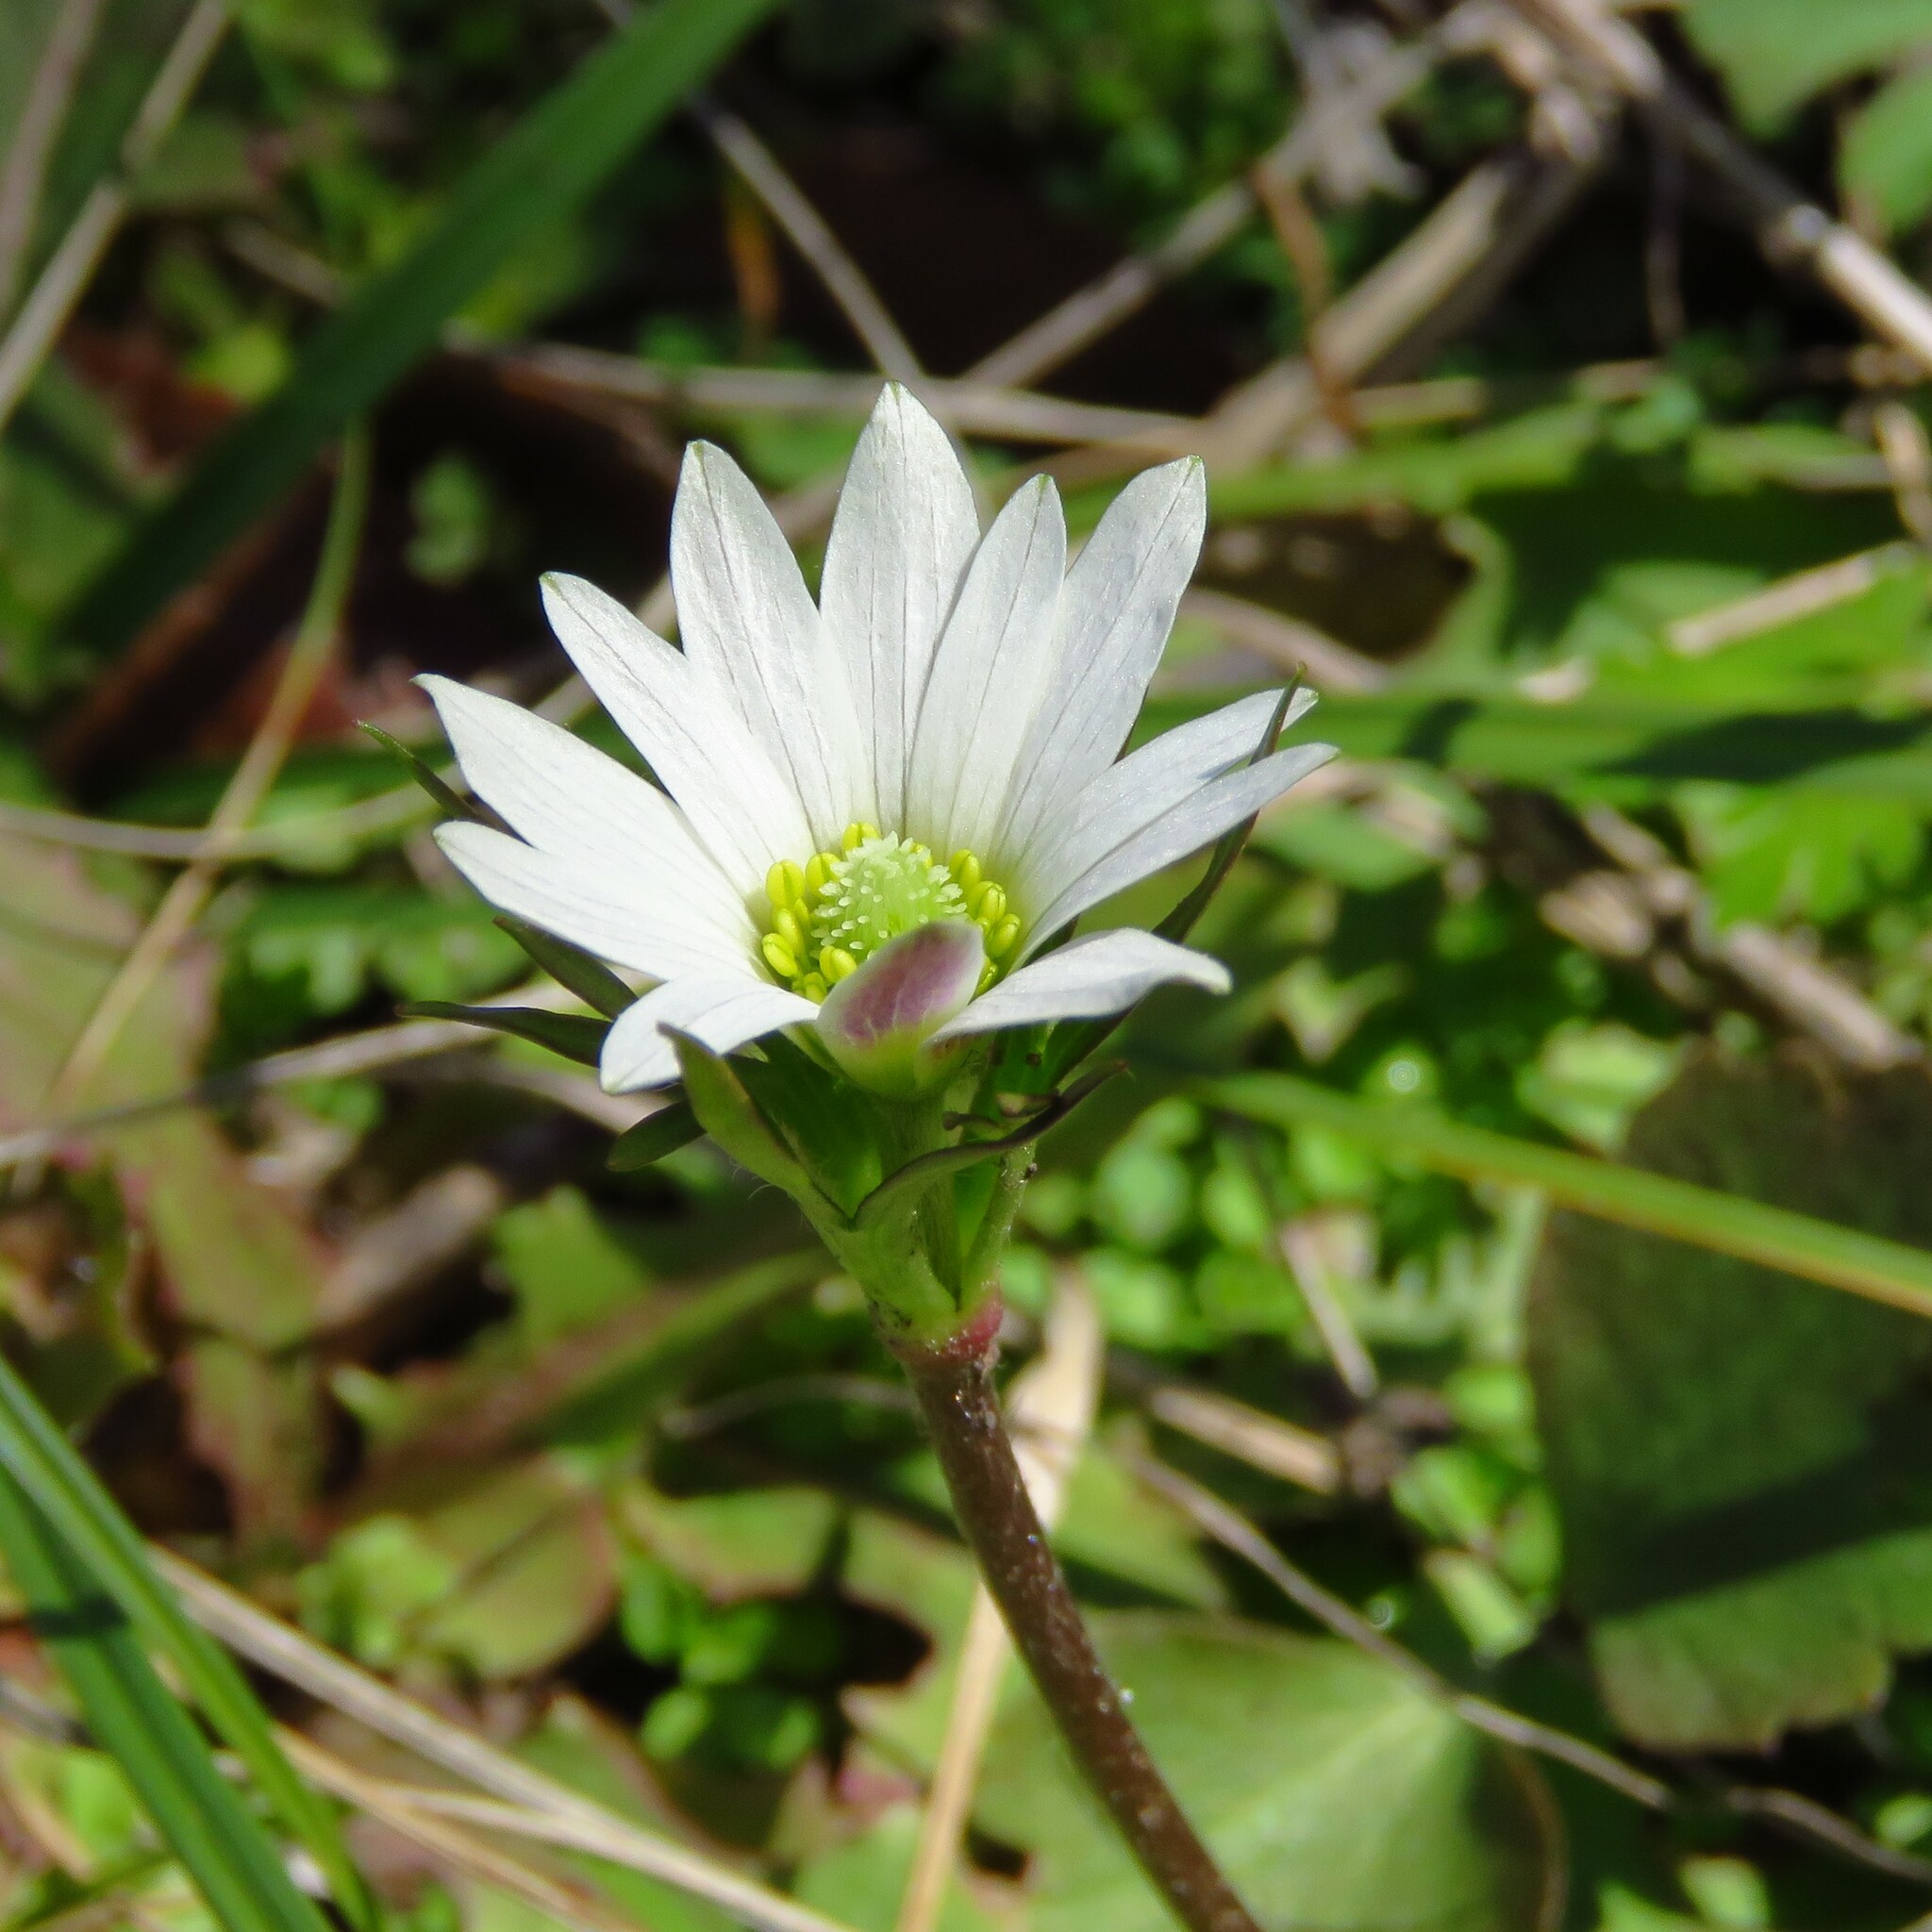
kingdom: Plantae
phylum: Tracheophyta
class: Magnoliopsida
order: Ranunculales
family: Ranunculaceae
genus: Anemone
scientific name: Anemone berlandieri
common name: Ten-petal anemone
